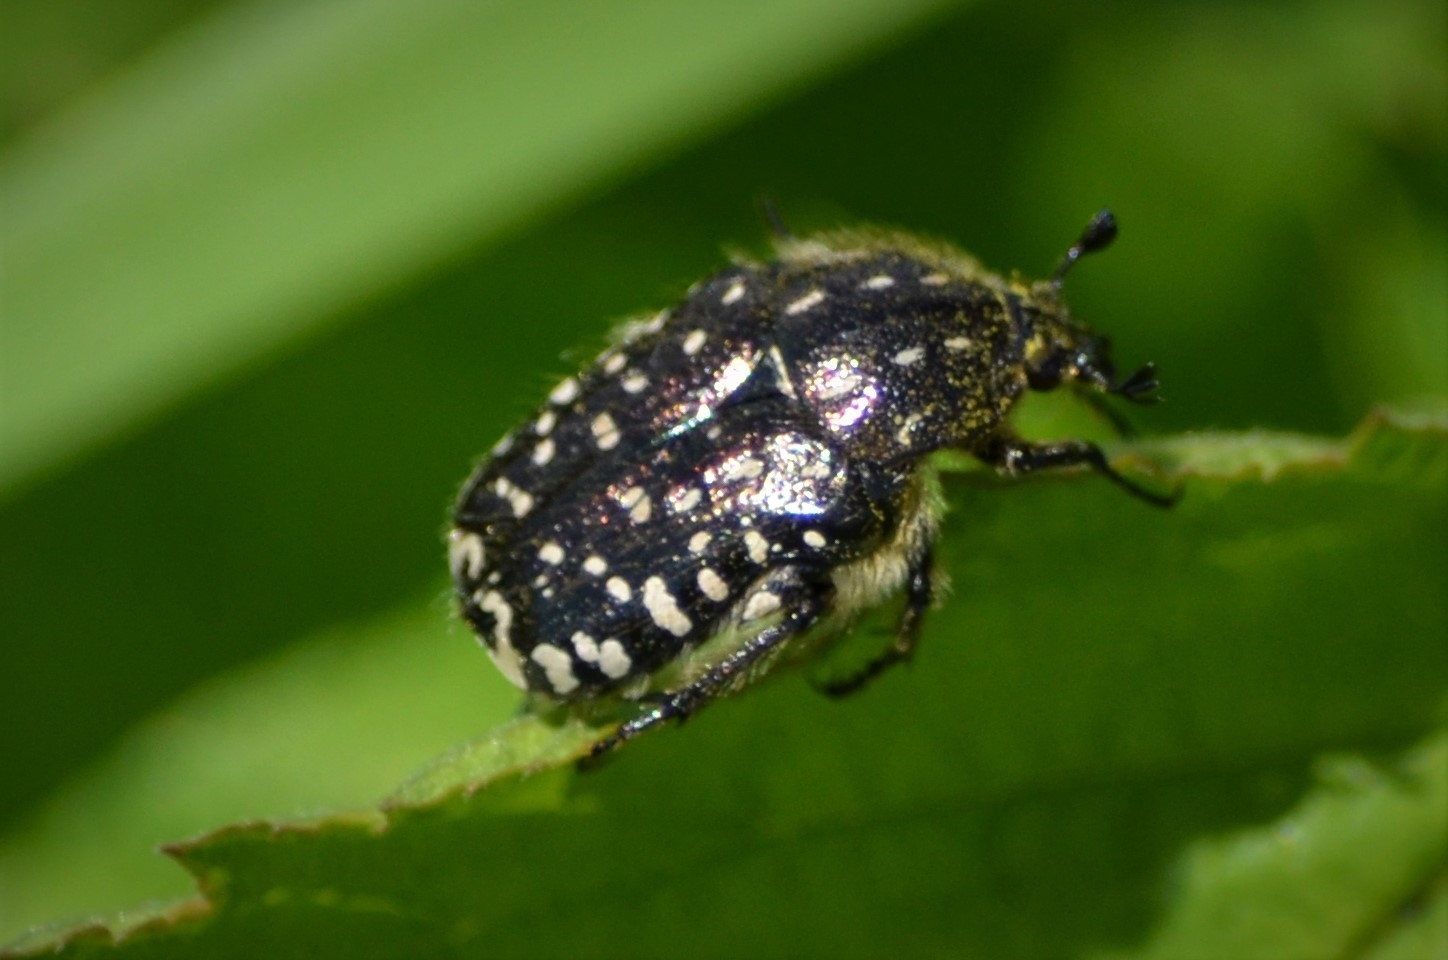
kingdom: Animalia
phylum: Arthropoda
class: Insecta
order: Coleoptera
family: Scarabaeidae
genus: Oxythyrea
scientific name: Oxythyrea funesta
